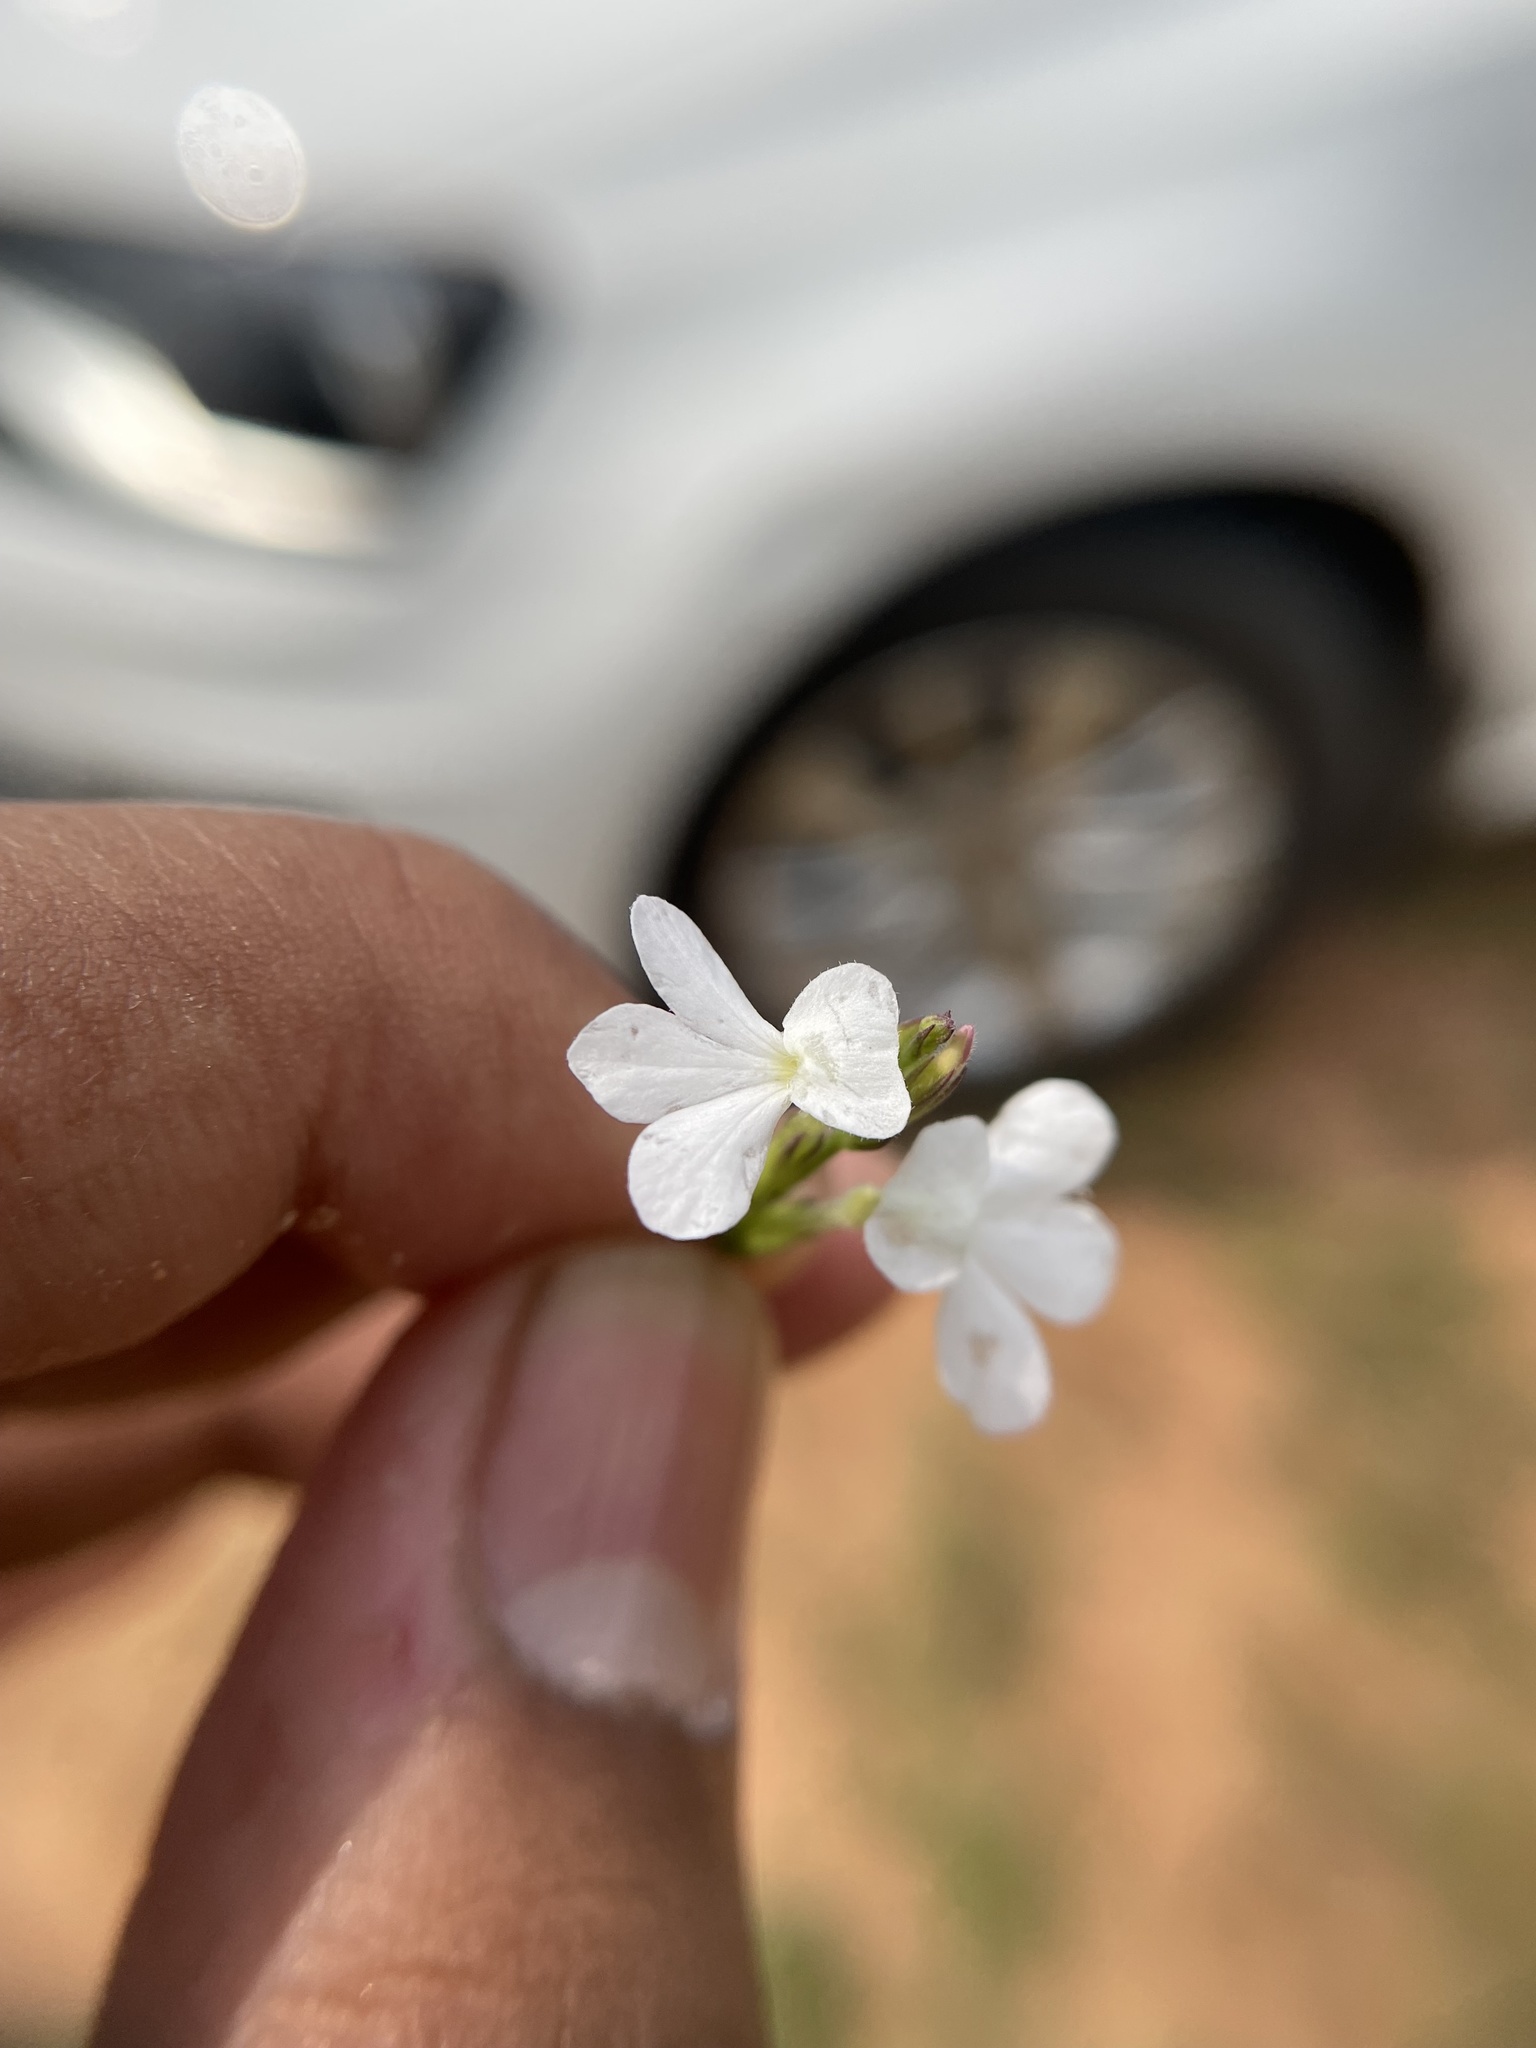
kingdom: Plantae
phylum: Tracheophyta
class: Magnoliopsida
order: Lamiales
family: Orobanchaceae
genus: Striga
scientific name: Striga angustifolia
